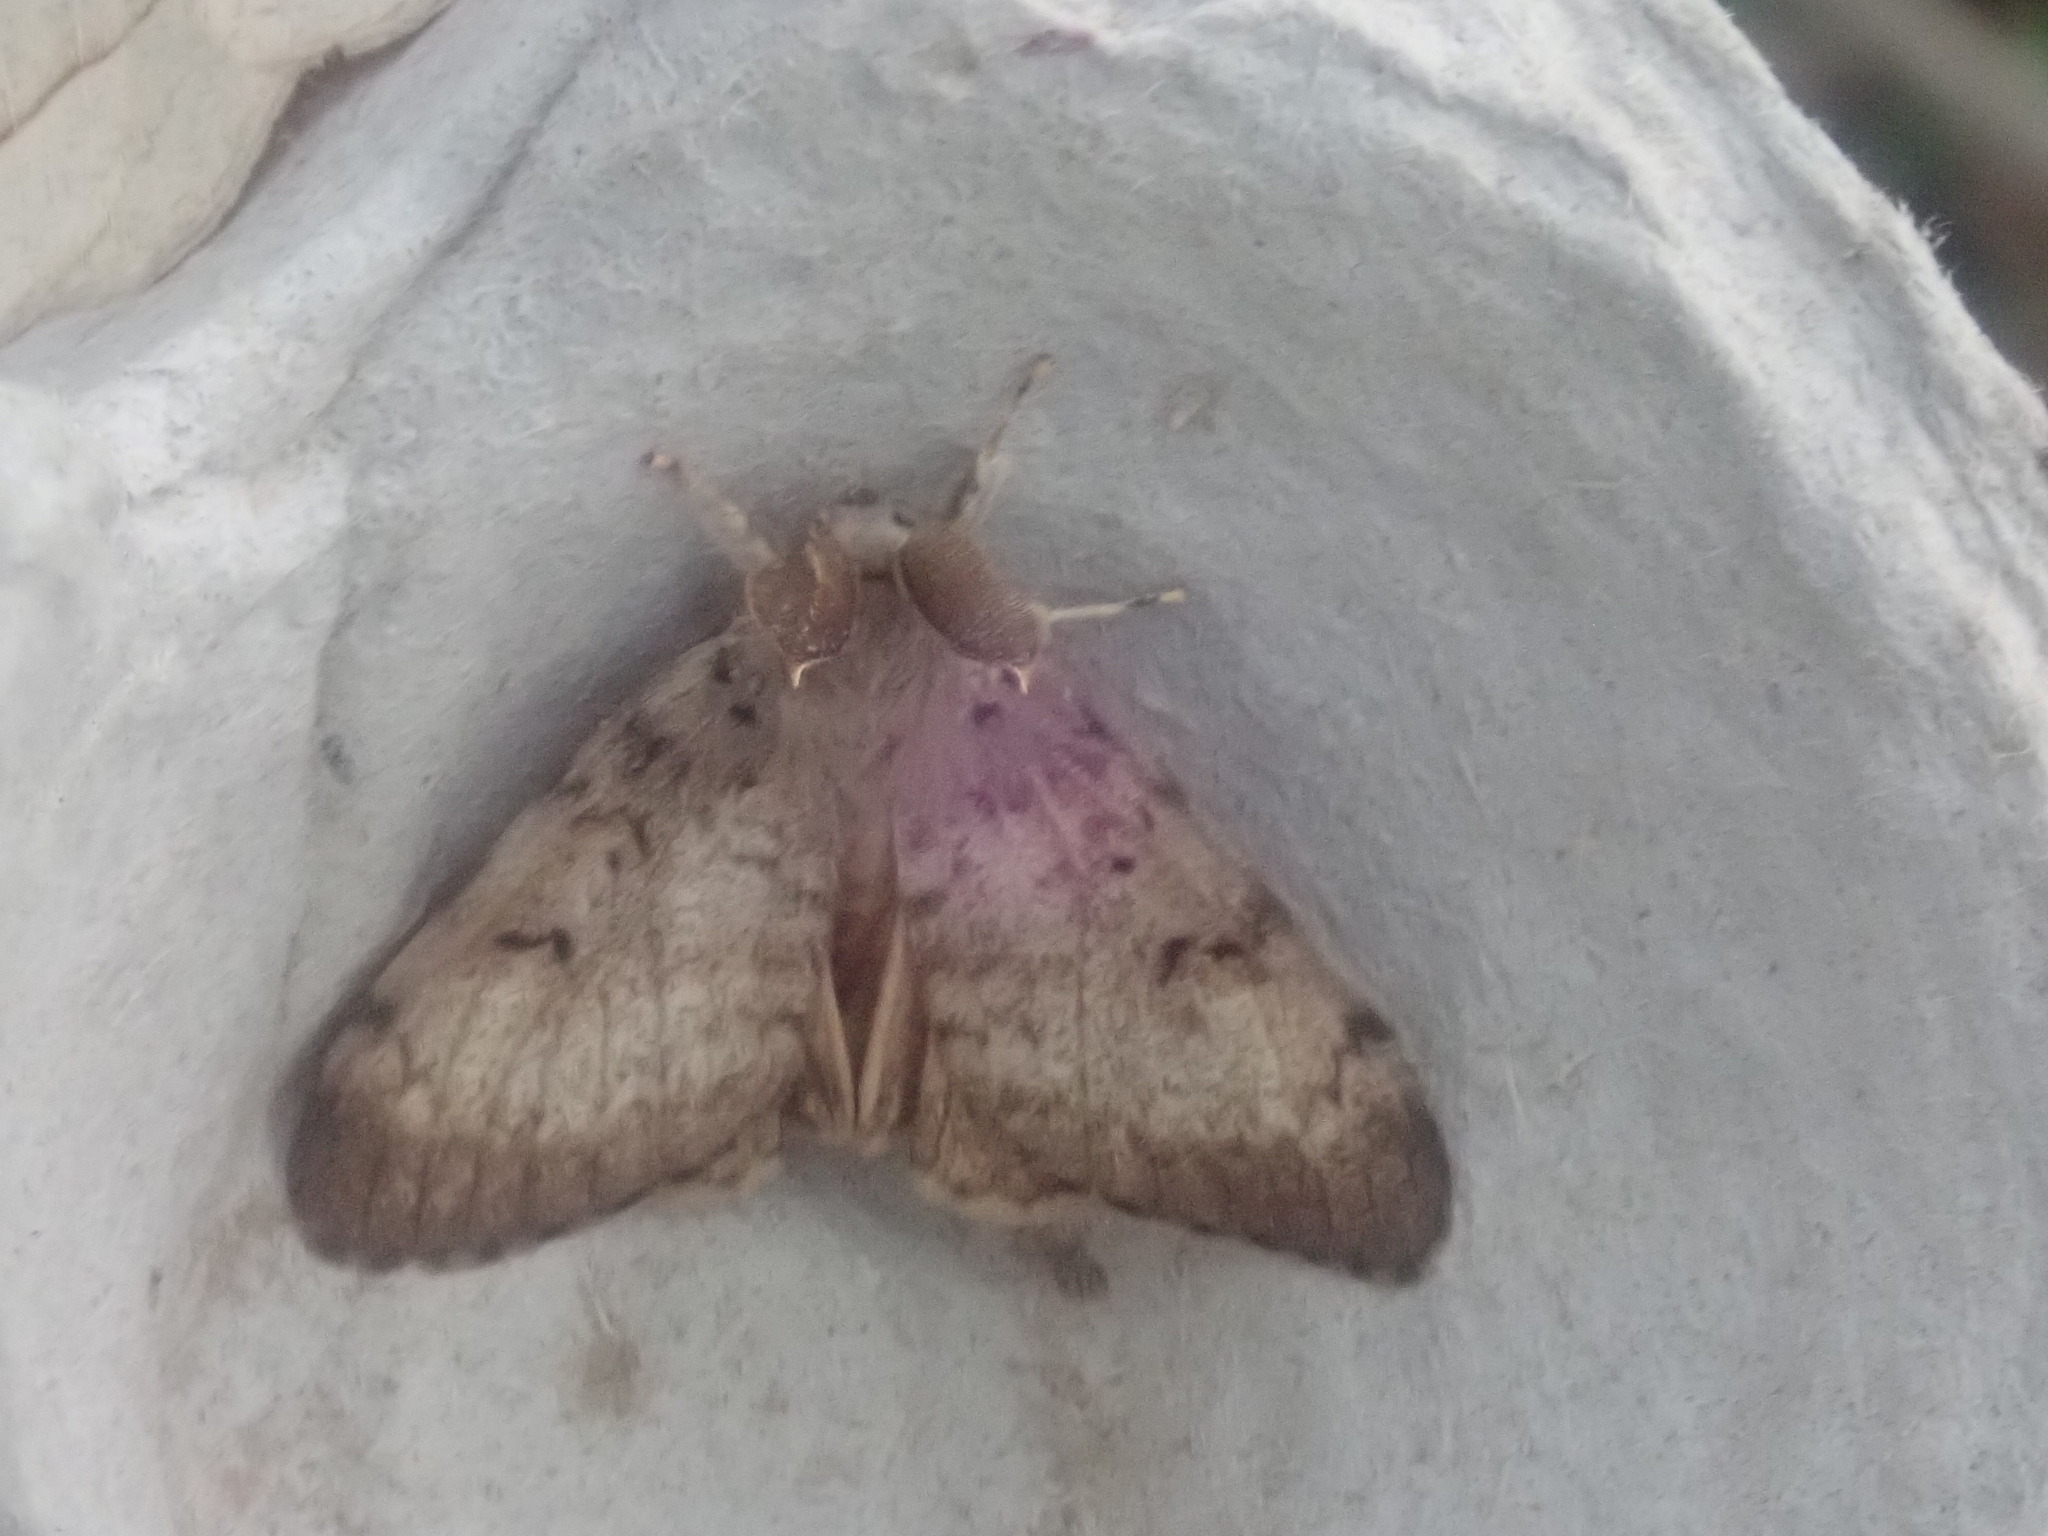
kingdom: Animalia
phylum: Arthropoda
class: Insecta
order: Lepidoptera
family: Erebidae
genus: Lymantria
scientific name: Lymantria dispar
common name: Gypsy moth
